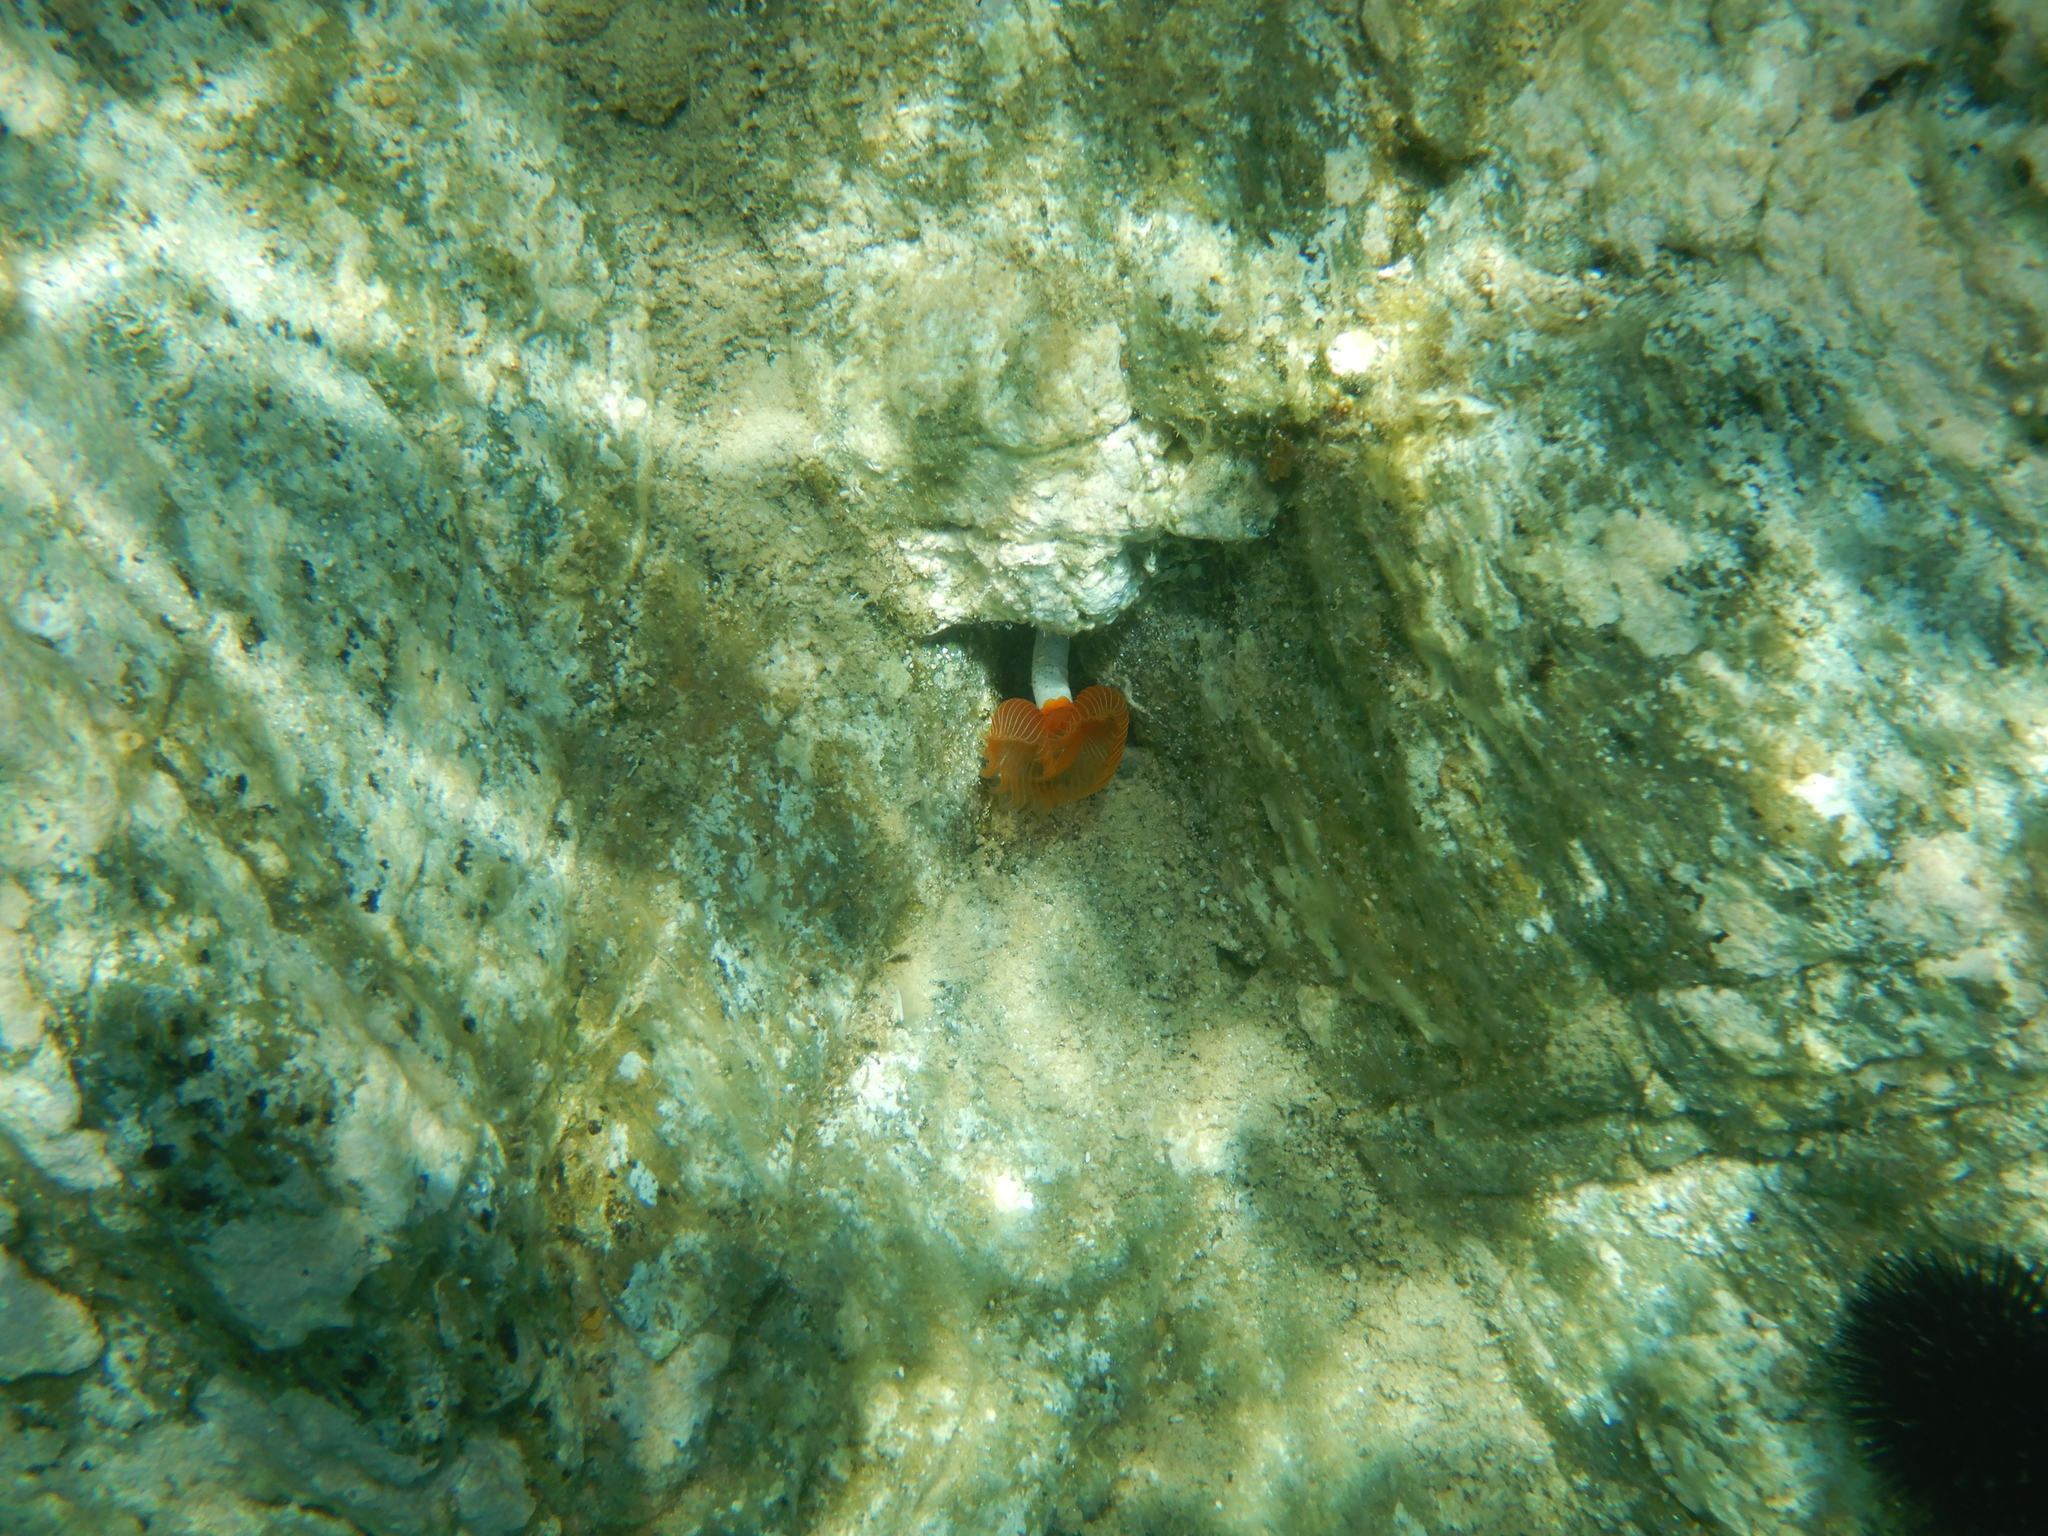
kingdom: Animalia
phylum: Annelida
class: Polychaeta
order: Sabellida
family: Serpulidae
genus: Protula
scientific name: Protula tubularia
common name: Red-spotted horseshoe
